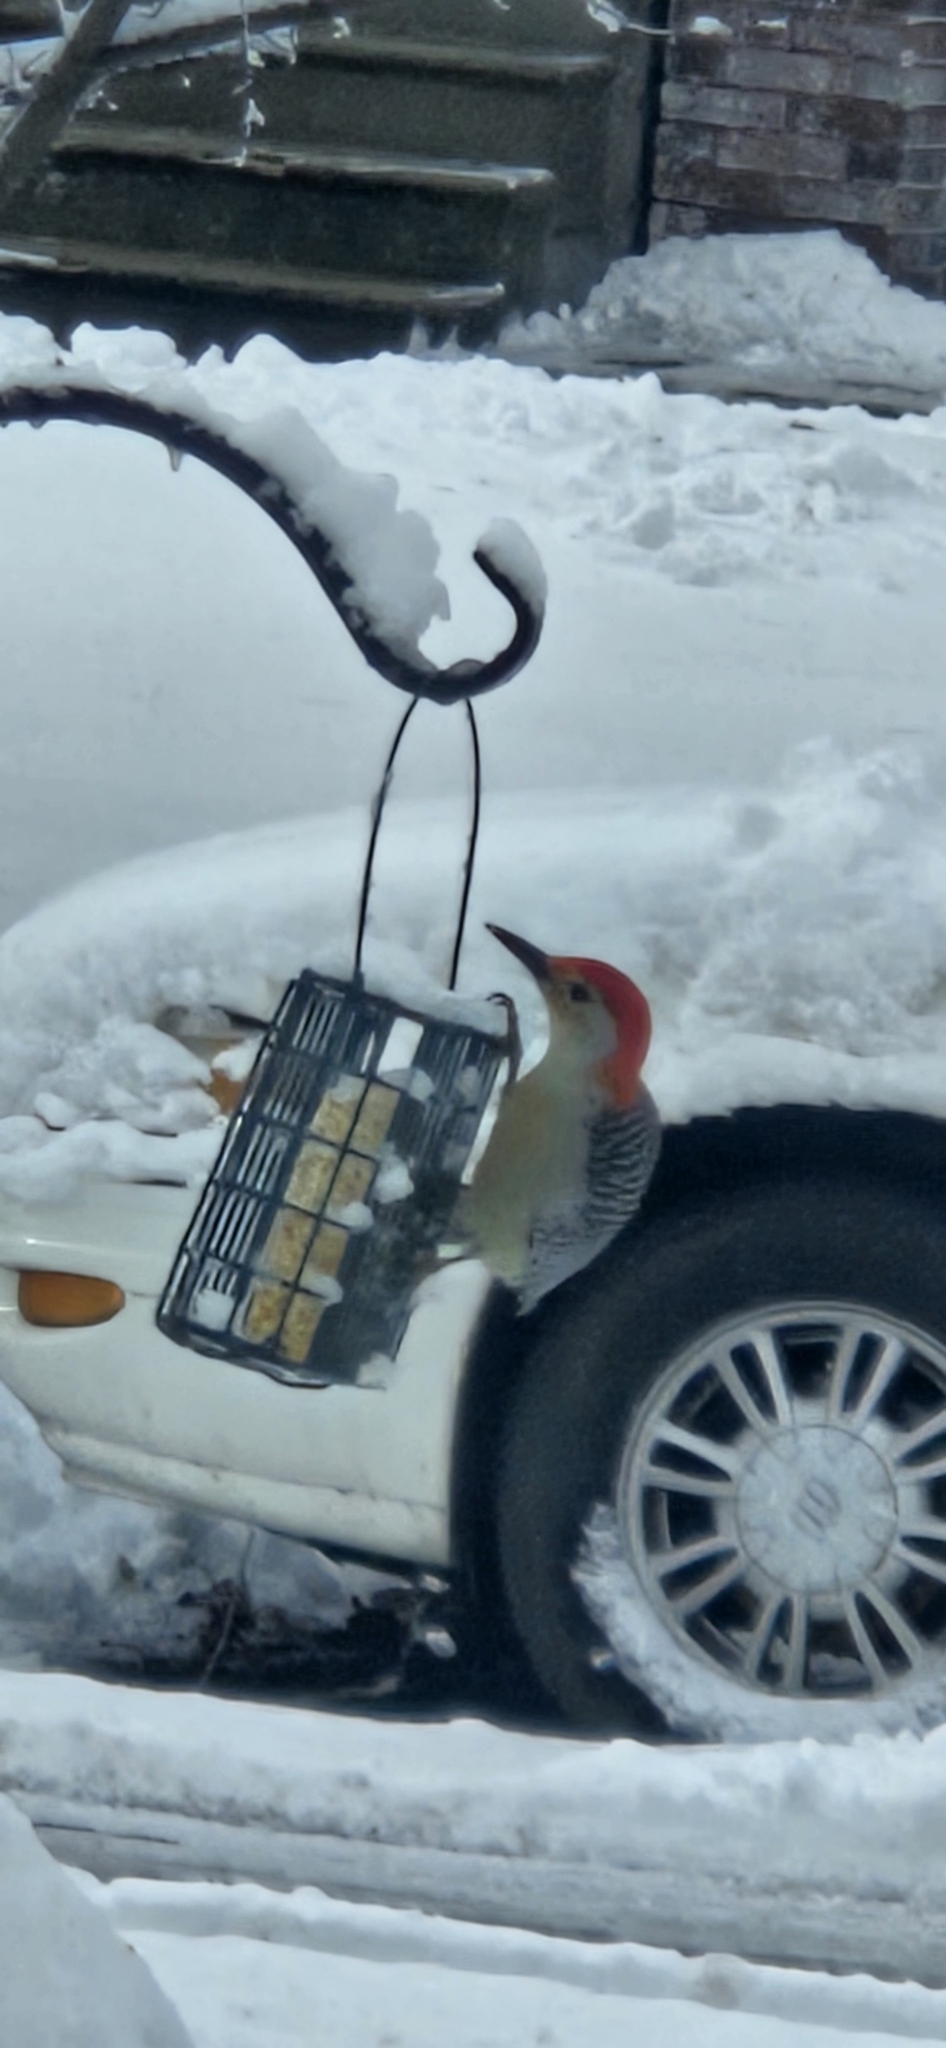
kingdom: Animalia
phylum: Chordata
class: Aves
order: Piciformes
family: Picidae
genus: Melanerpes
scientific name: Melanerpes carolinus
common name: Red-bellied woodpecker
